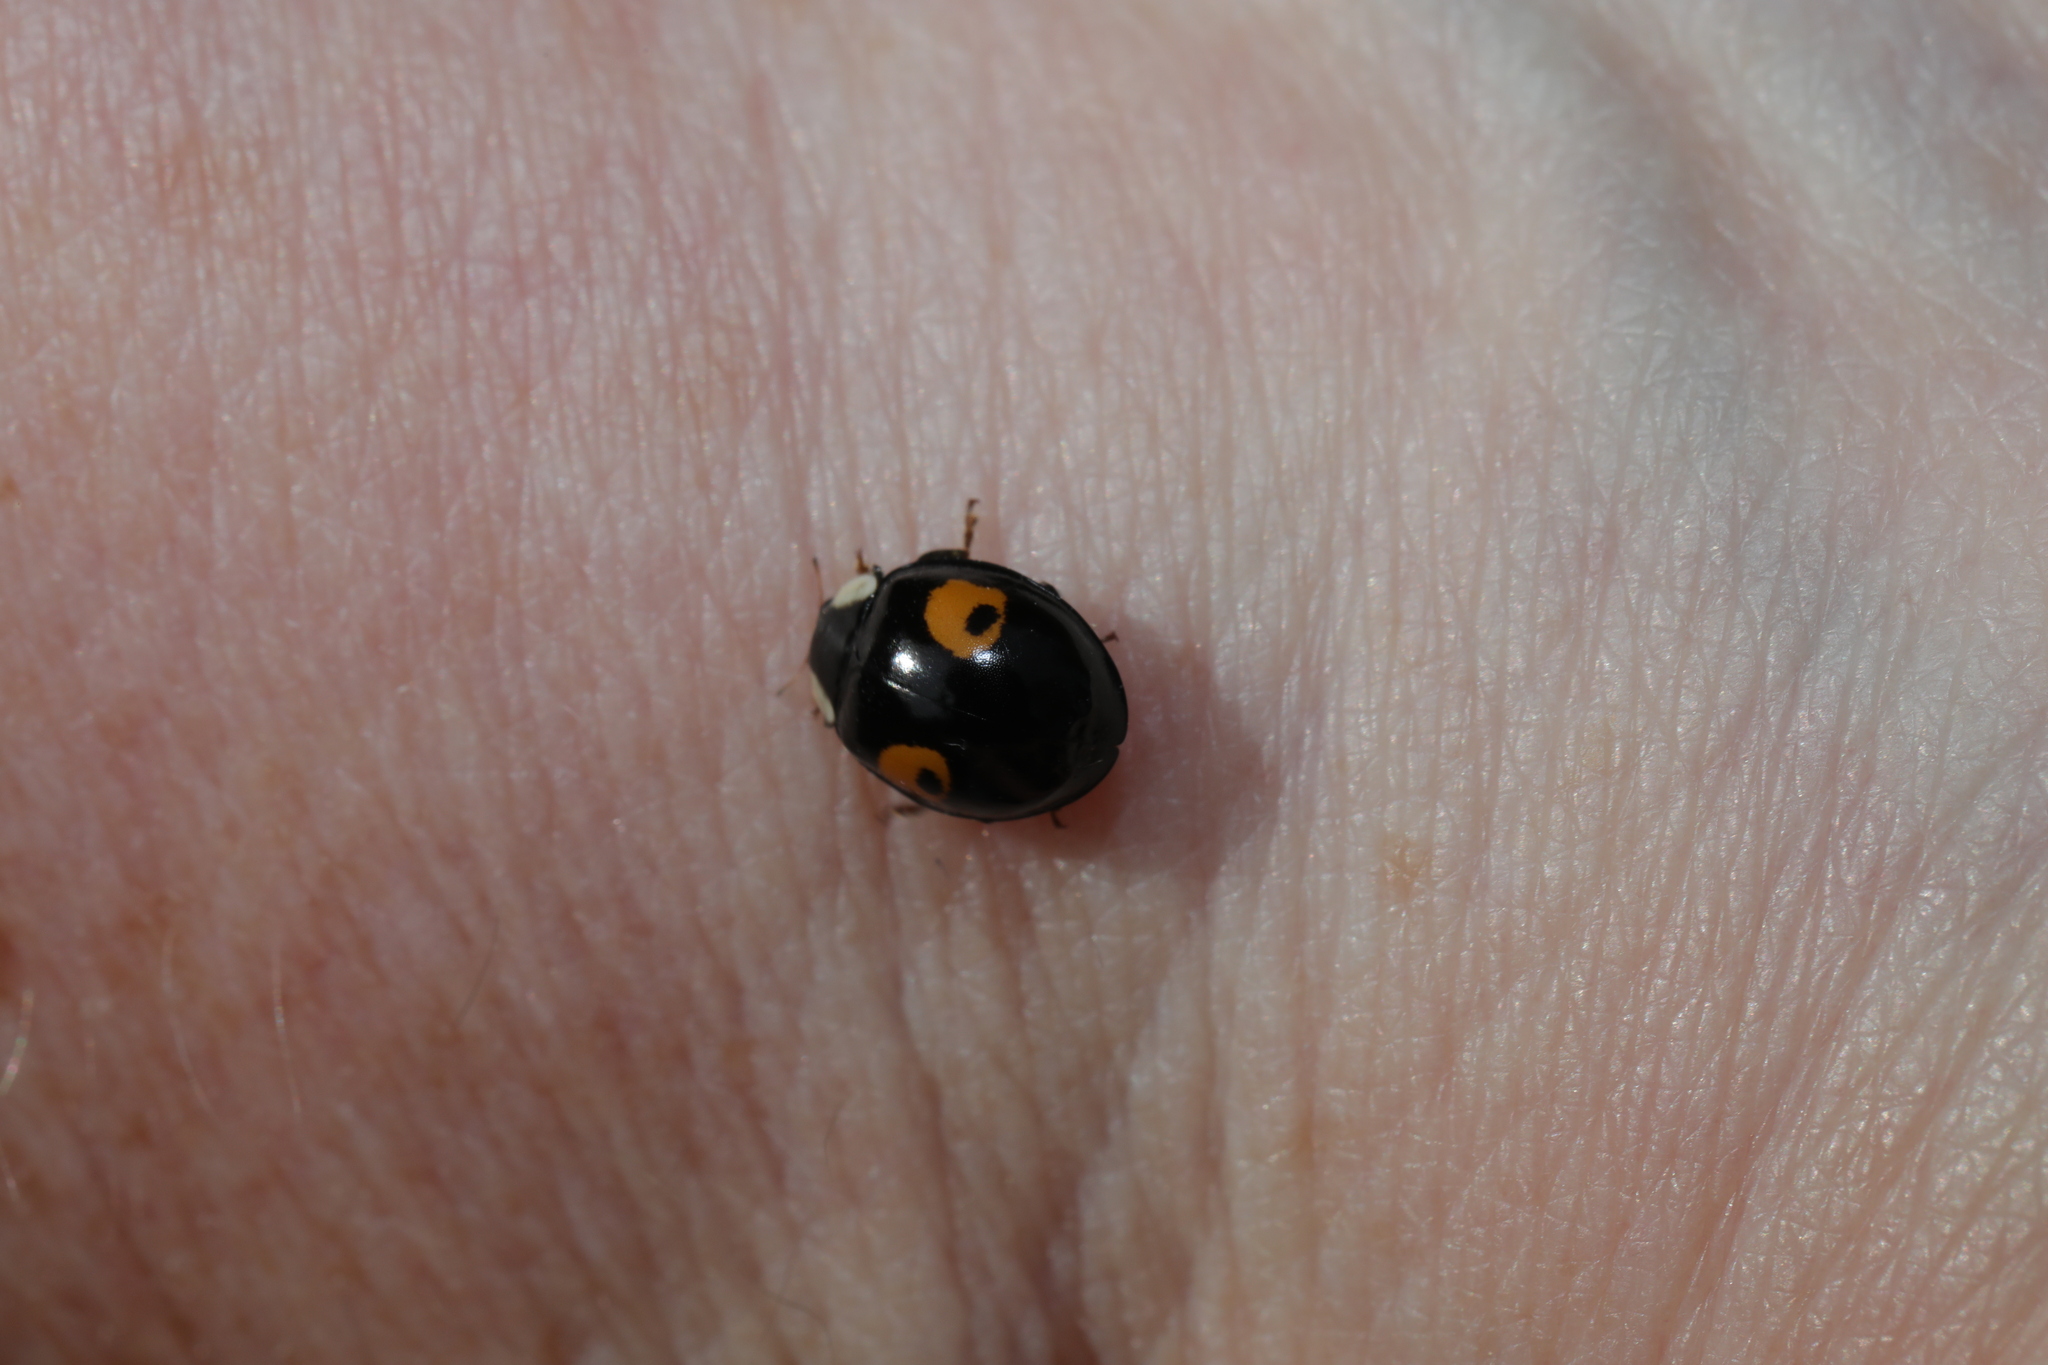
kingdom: Animalia
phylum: Arthropoda
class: Insecta
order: Coleoptera
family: Coccinellidae
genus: Harmonia
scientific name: Harmonia axyridis
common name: Harlequin ladybird
